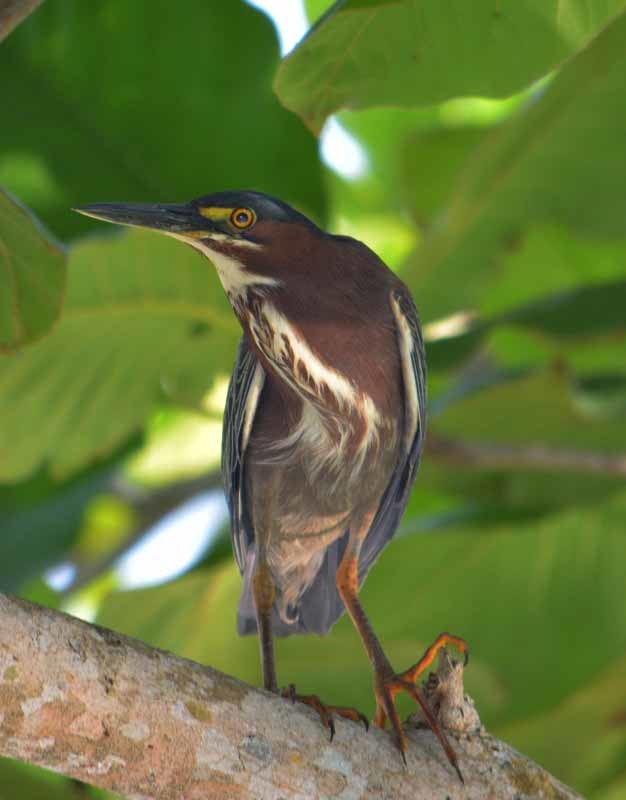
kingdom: Animalia
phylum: Chordata
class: Aves
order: Pelecaniformes
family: Ardeidae
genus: Butorides
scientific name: Butorides virescens
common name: Green heron
